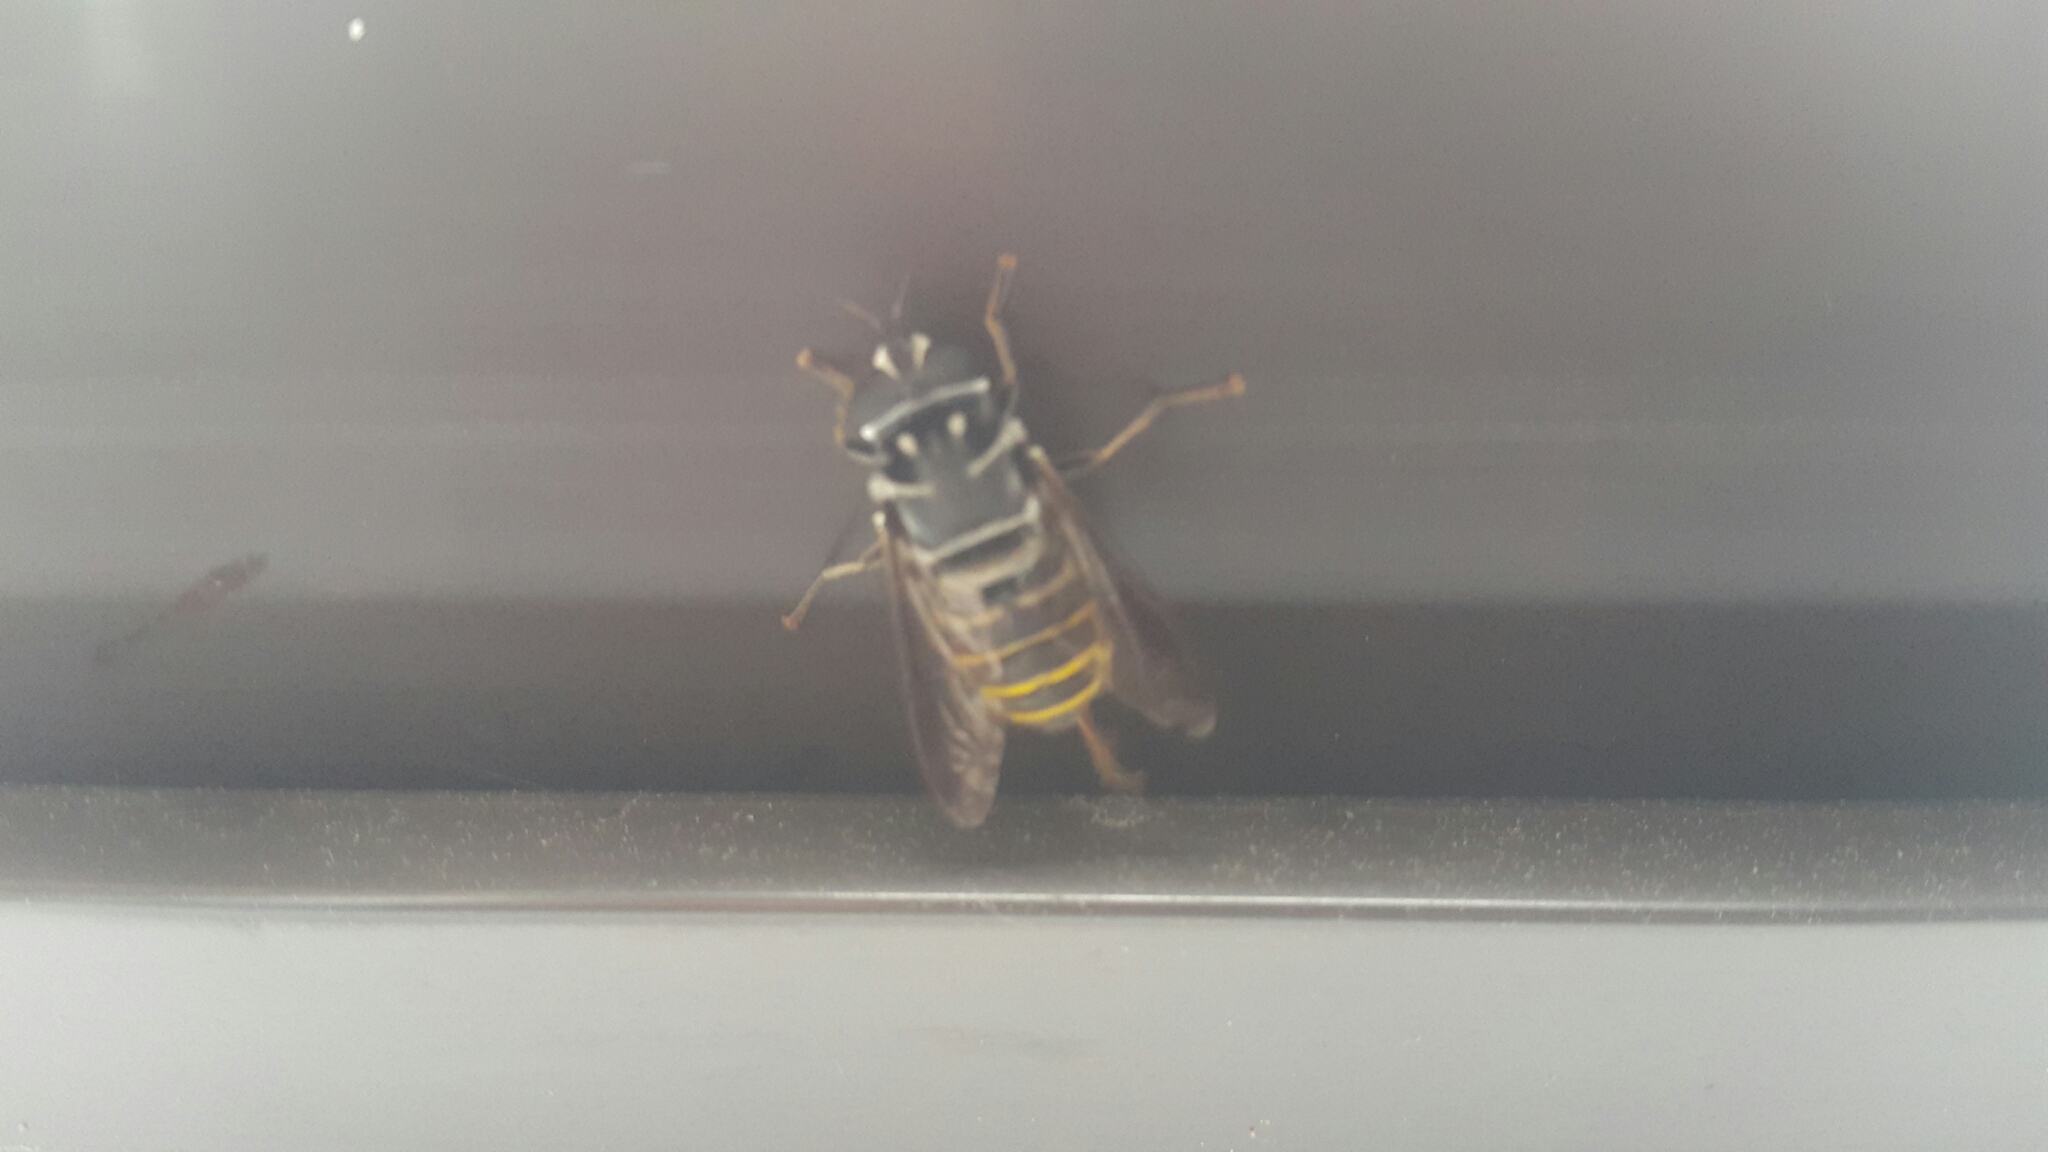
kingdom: Animalia
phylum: Arthropoda
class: Insecta
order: Diptera
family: Syrphidae
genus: Meromacrus
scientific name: Meromacrus loewi
